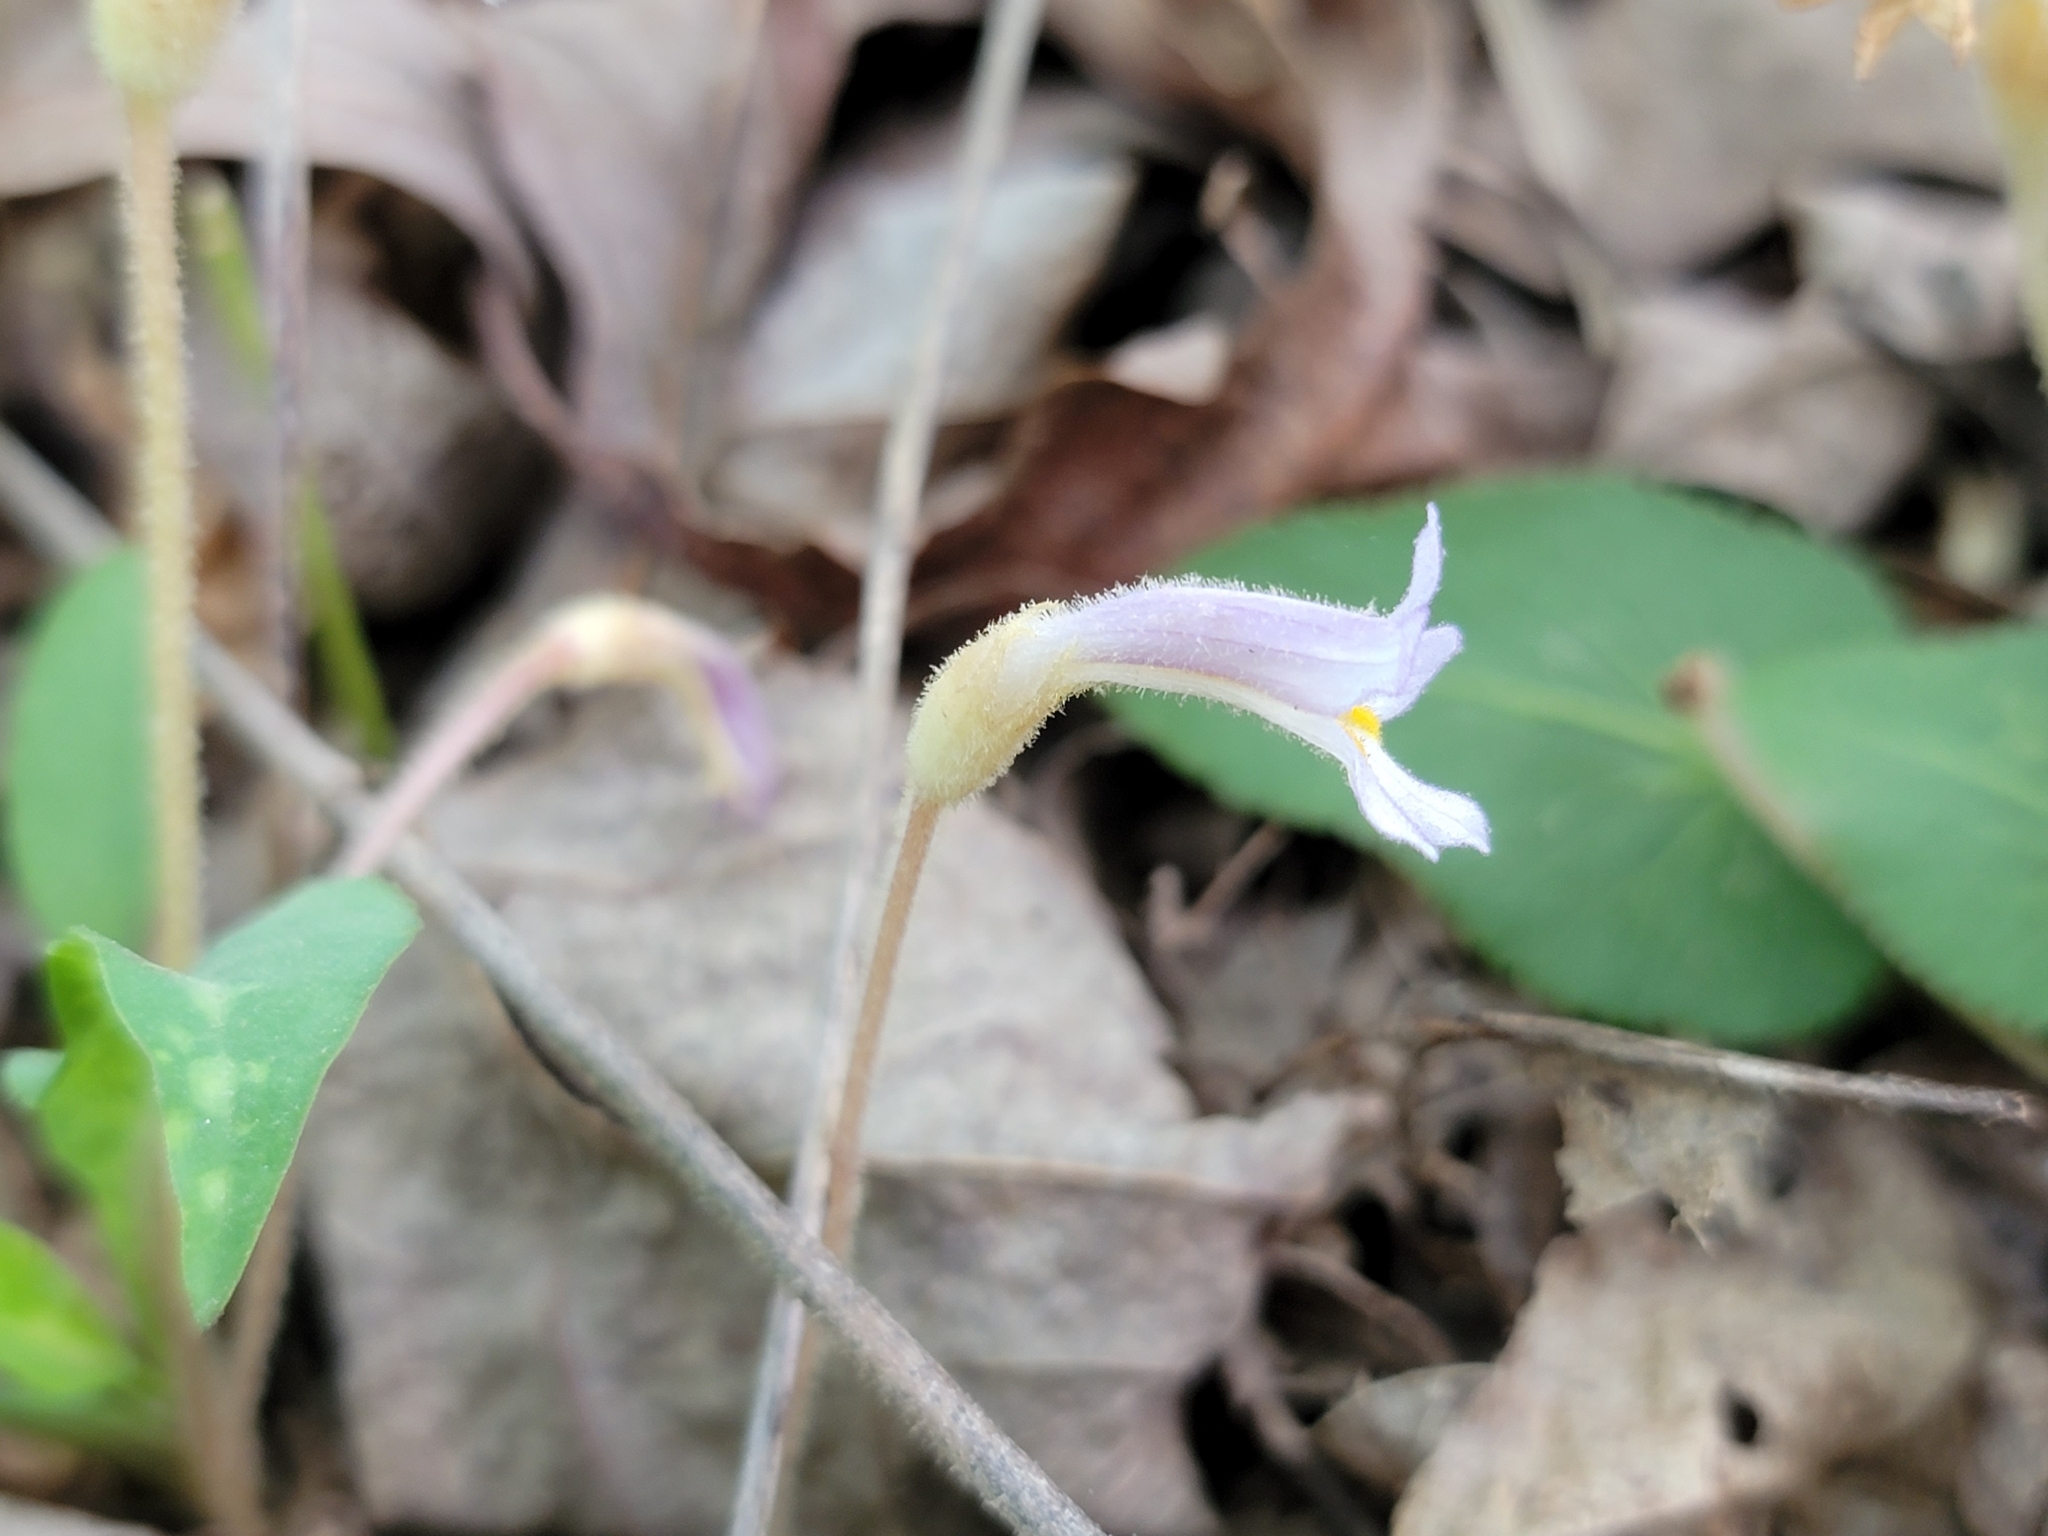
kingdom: Plantae
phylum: Tracheophyta
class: Magnoliopsida
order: Lamiales
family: Orobanchaceae
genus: Aphyllon
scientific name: Aphyllon uniflorum
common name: One-flowered broomrape
